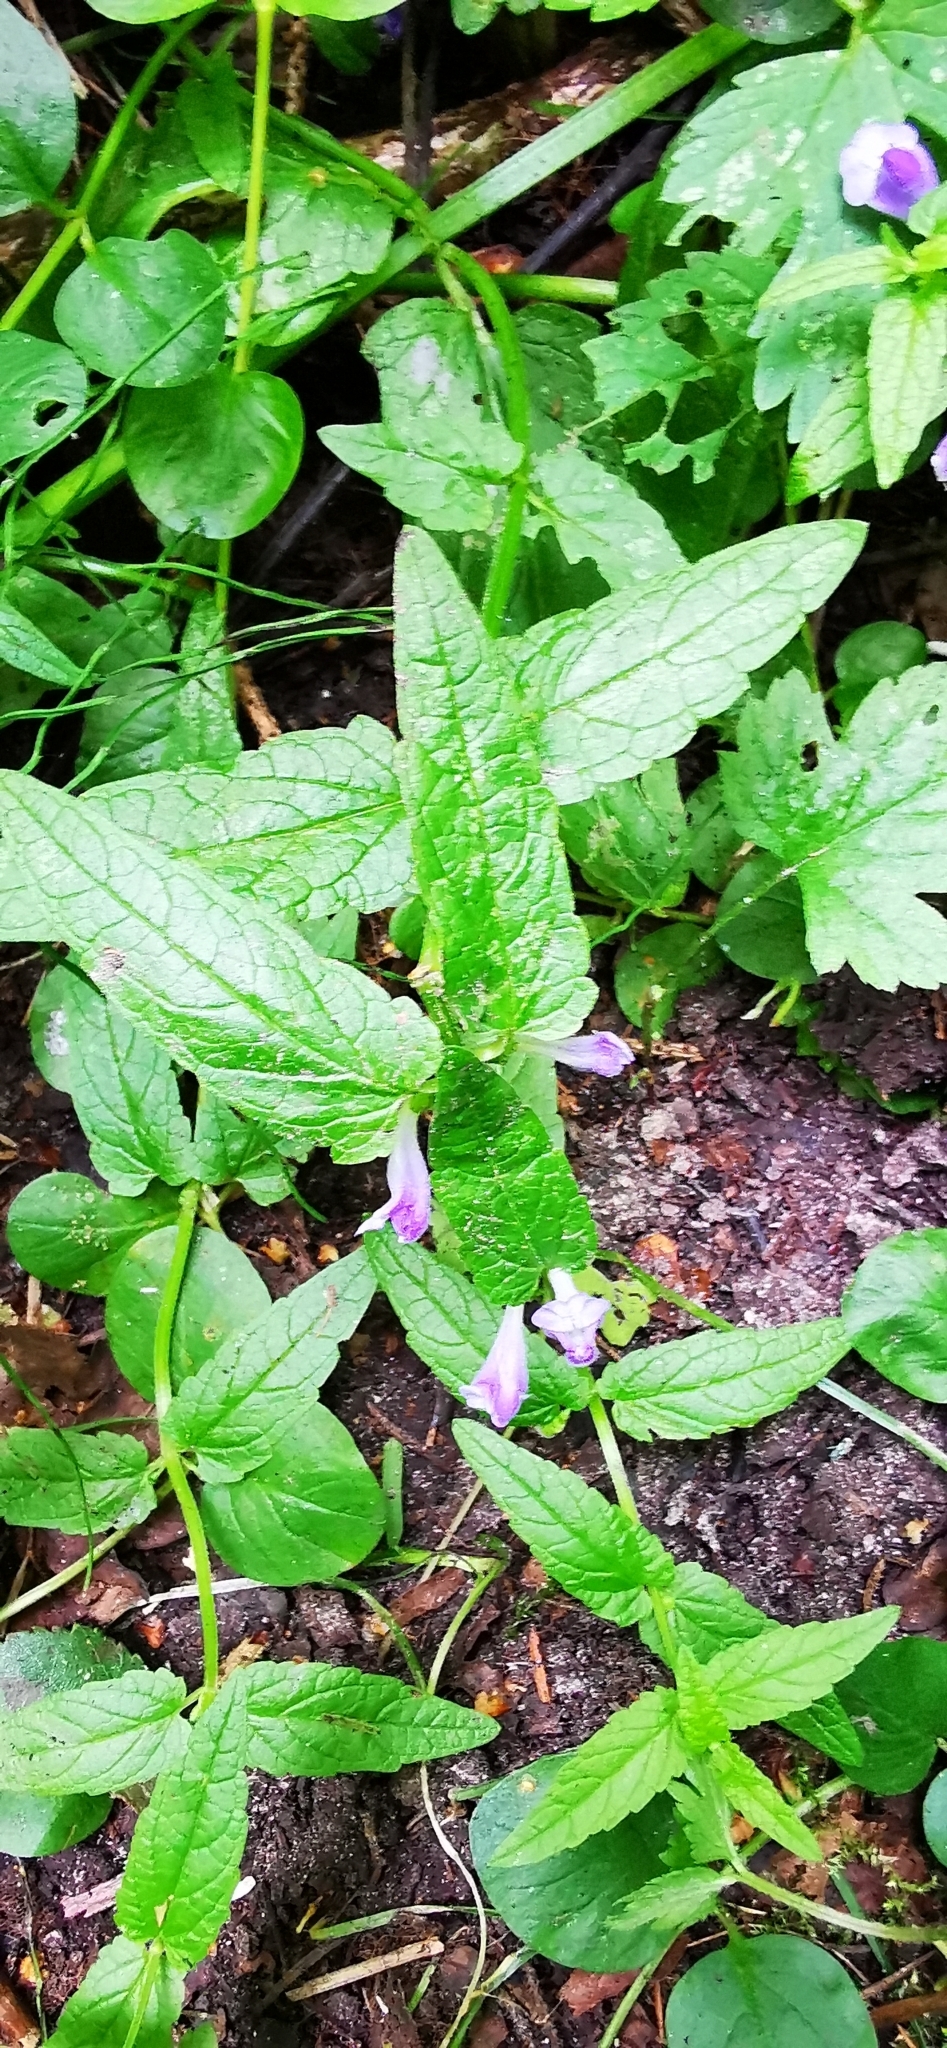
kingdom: Plantae
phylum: Tracheophyta
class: Magnoliopsida
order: Lamiales
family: Lamiaceae
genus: Scutellaria
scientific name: Scutellaria galericulata
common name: Skullcap
